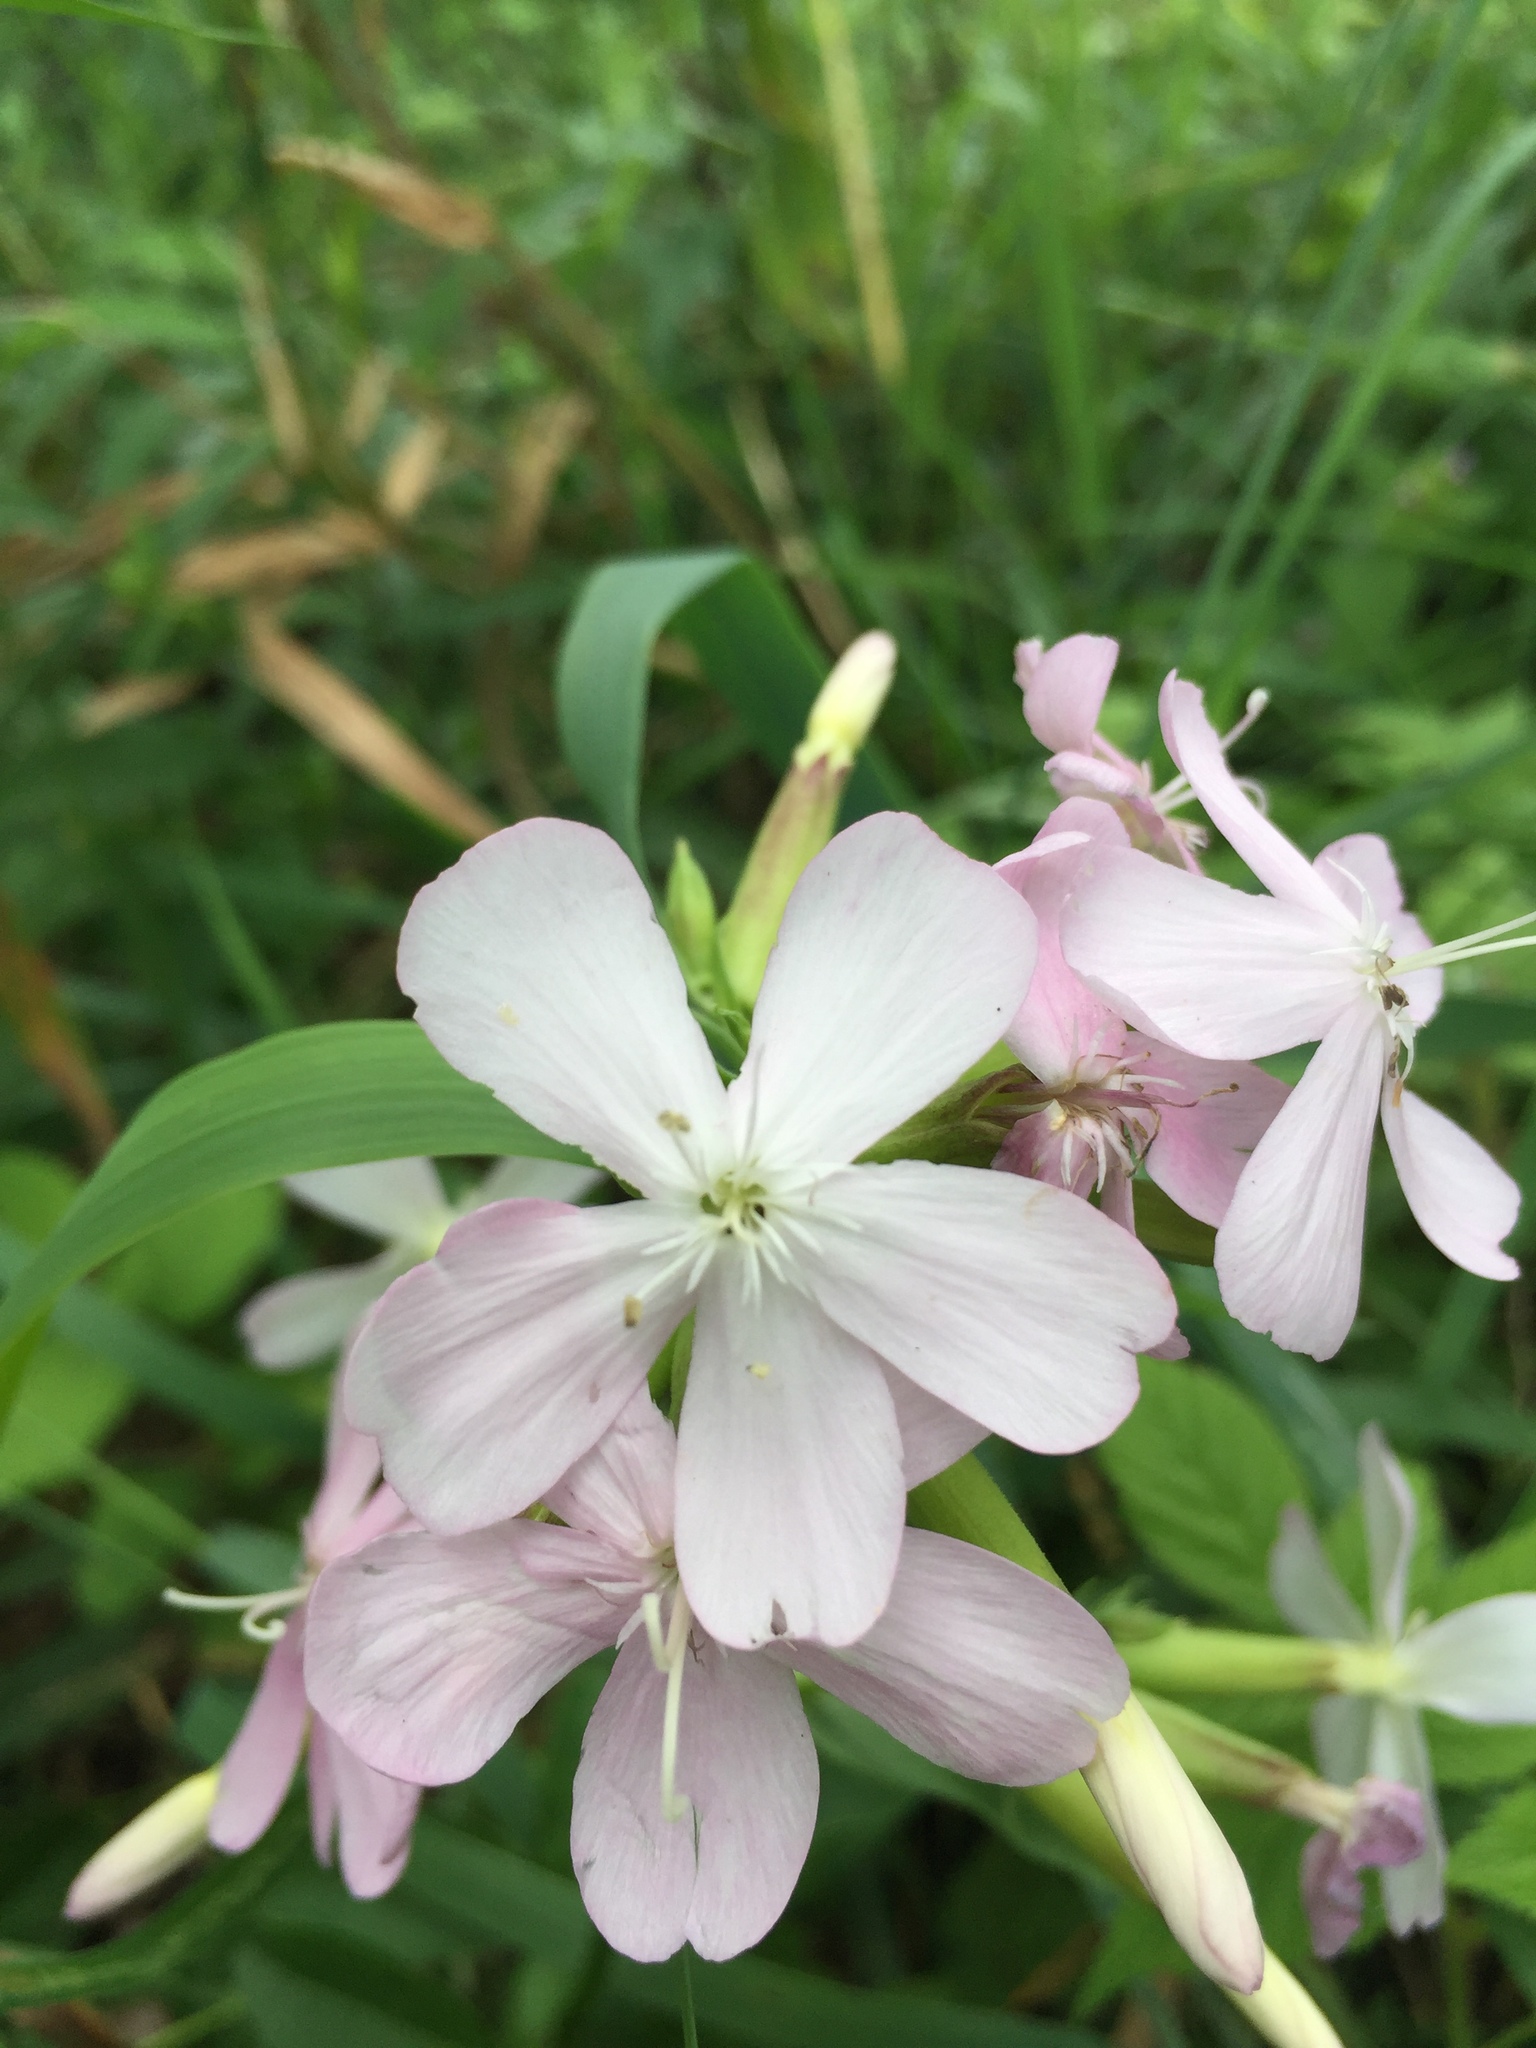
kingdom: Plantae
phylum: Tracheophyta
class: Magnoliopsida
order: Caryophyllales
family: Caryophyllaceae
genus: Saponaria
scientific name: Saponaria officinalis
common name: Soapwort
